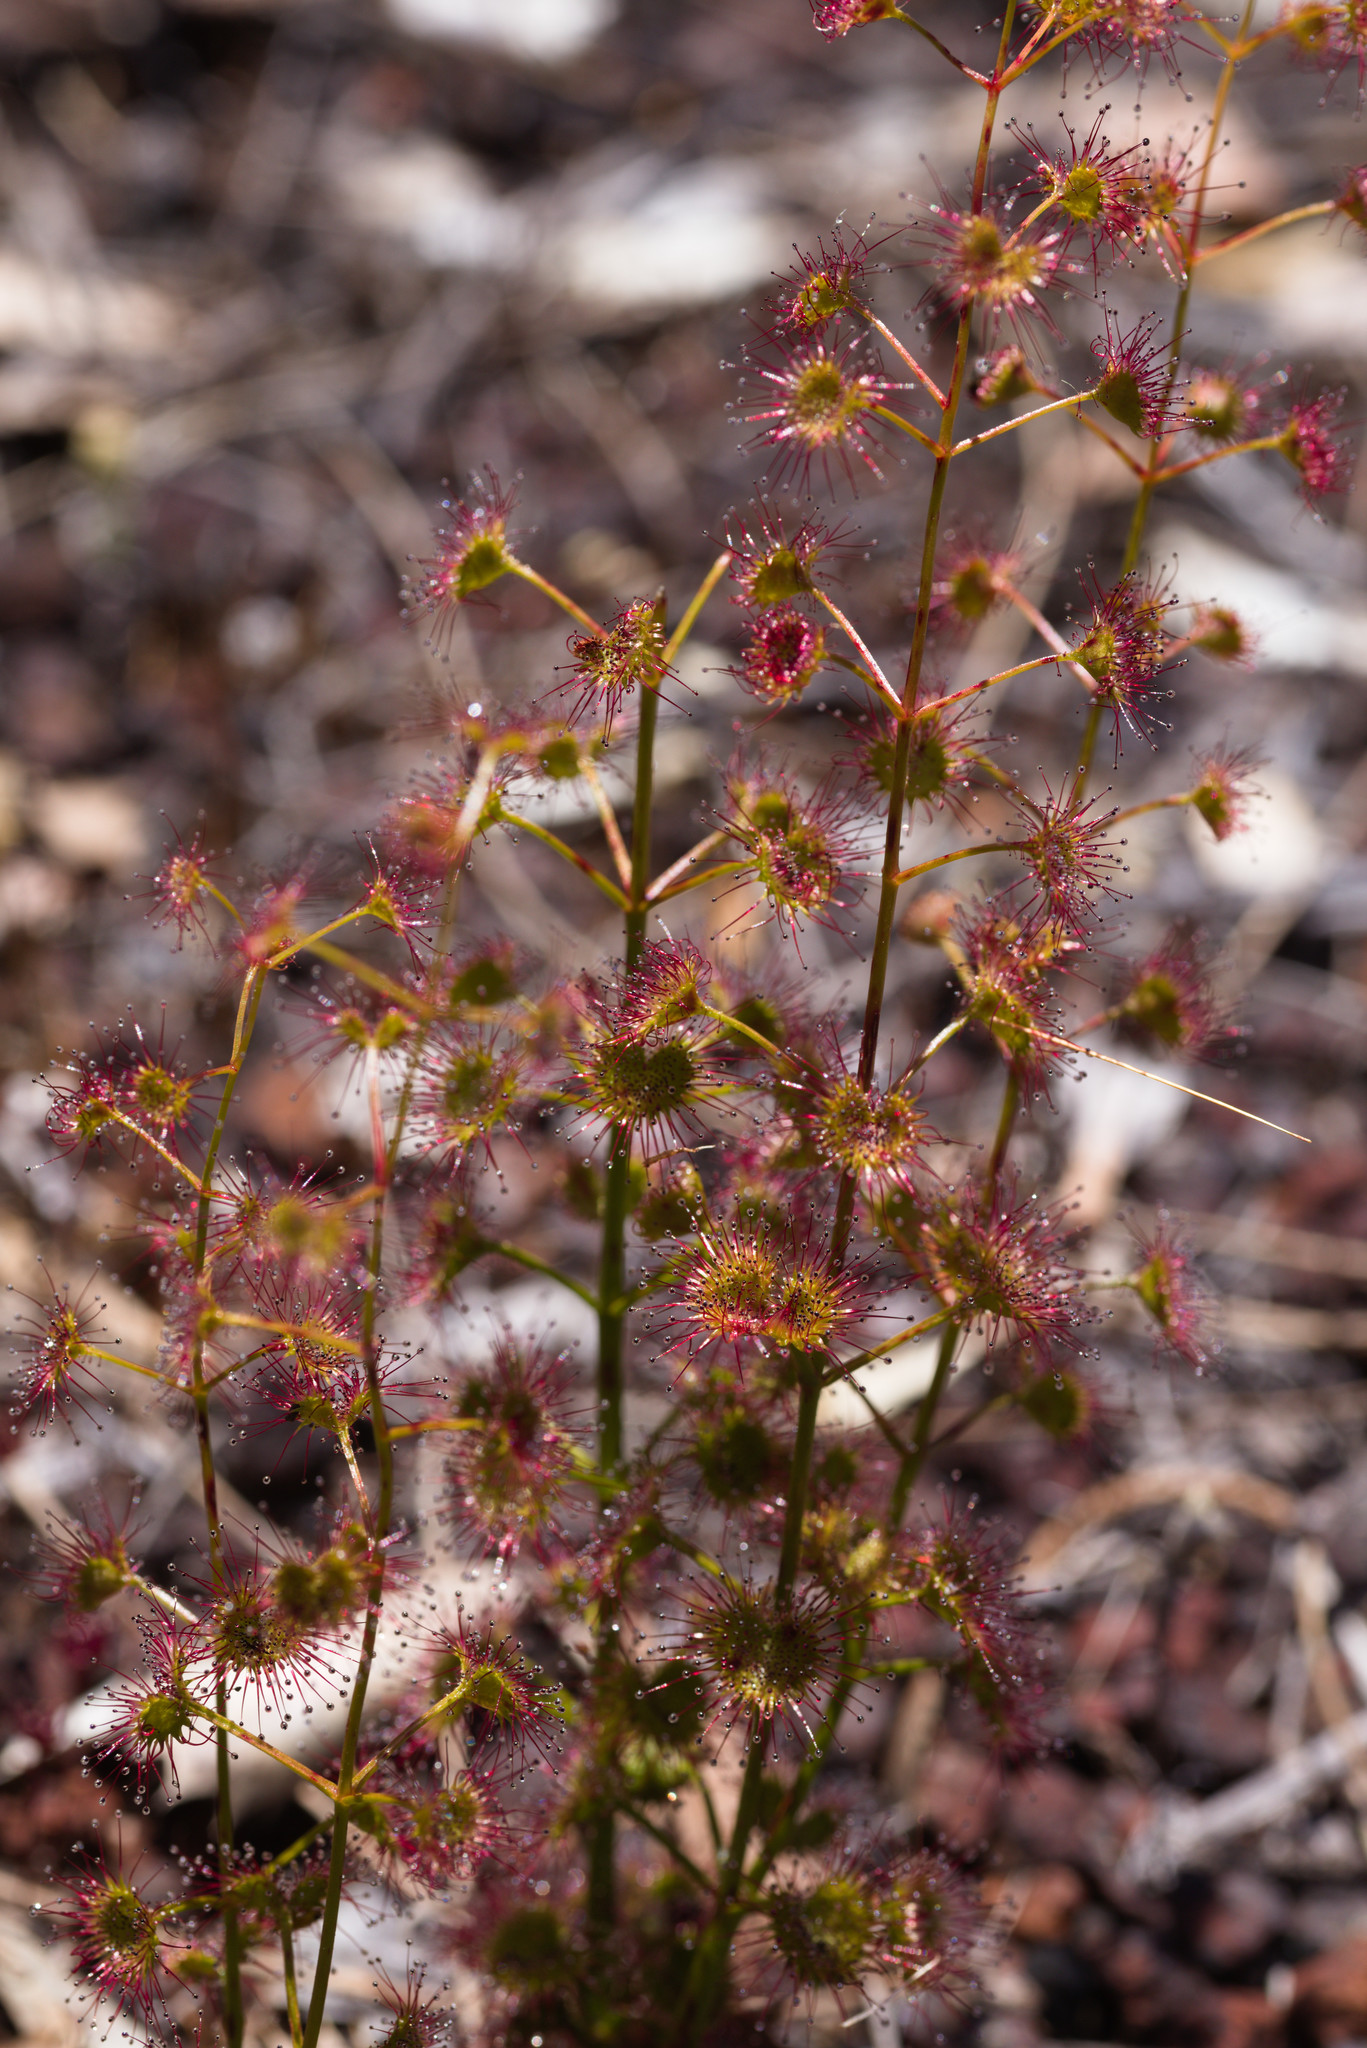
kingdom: Plantae
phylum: Tracheophyta
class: Magnoliopsida
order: Caryophyllales
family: Droseraceae
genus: Drosera
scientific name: Drosera stolonifera
